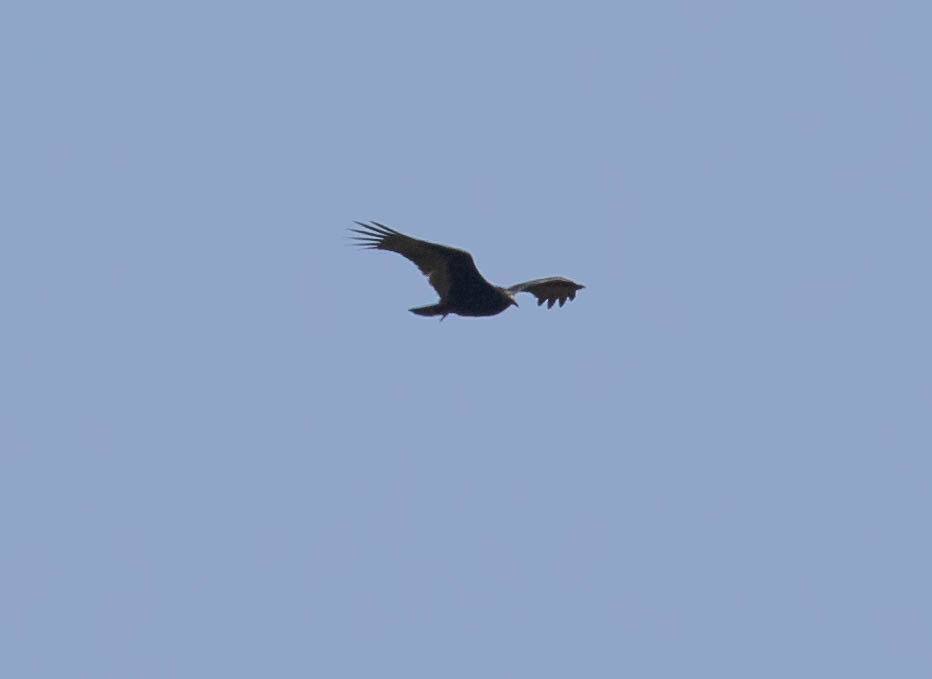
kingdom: Animalia
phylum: Chordata
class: Aves
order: Accipitriformes
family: Cathartidae
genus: Cathartes
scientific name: Cathartes aura
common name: Turkey vulture
